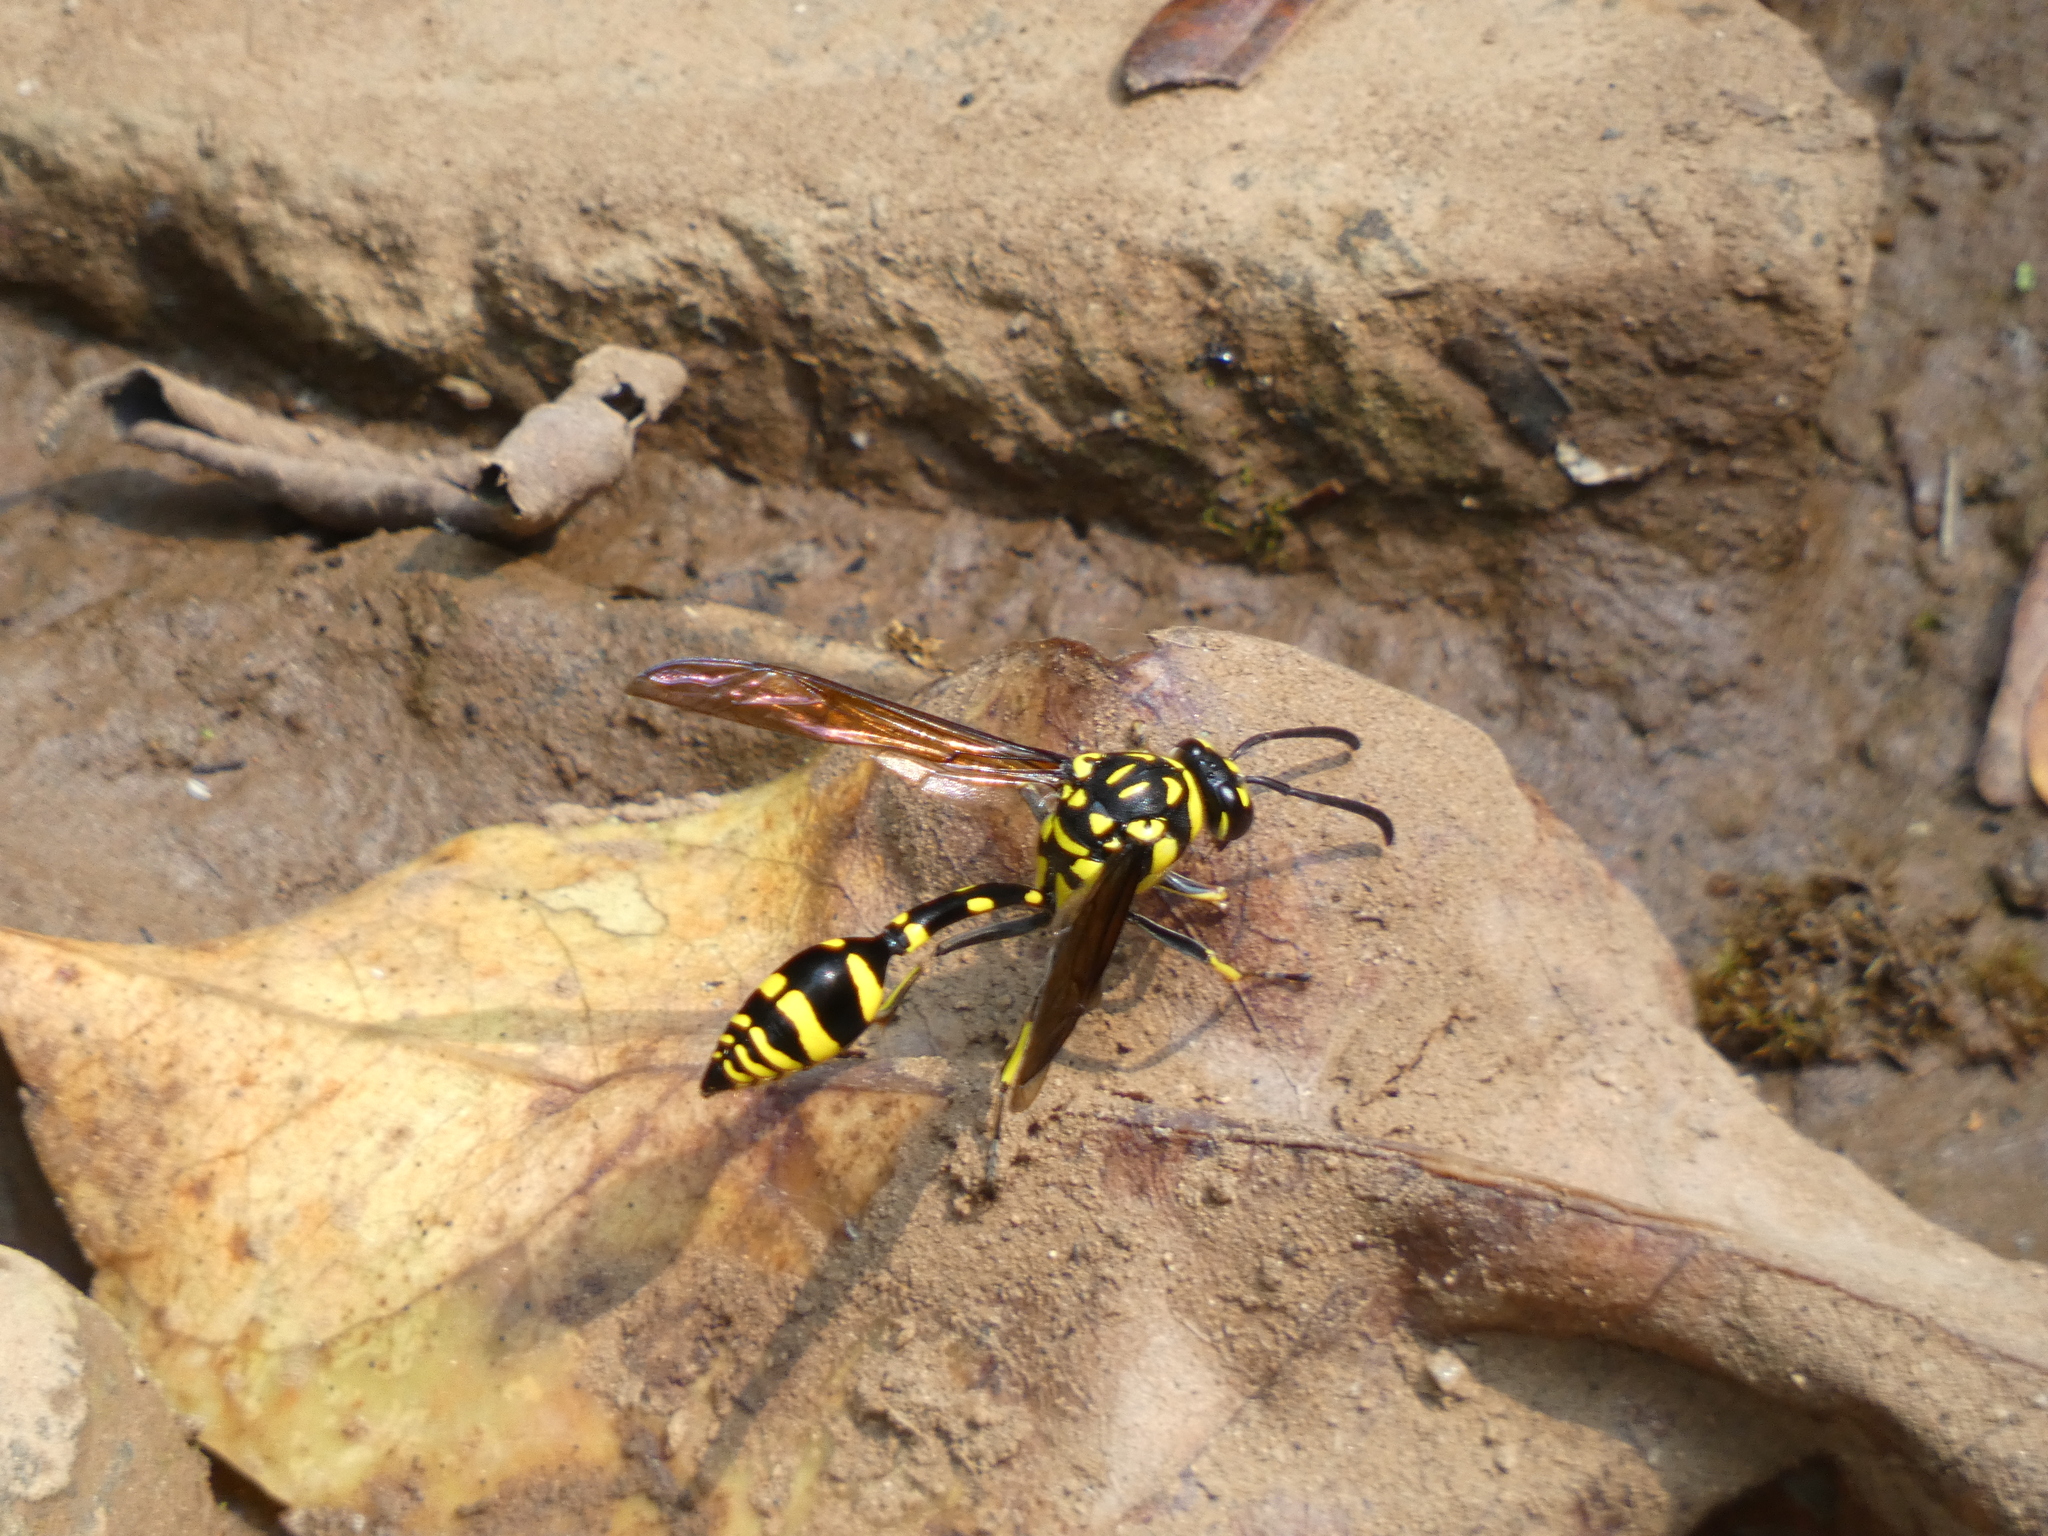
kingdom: Animalia
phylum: Arthropoda
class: Insecta
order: Hymenoptera
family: Eumenidae
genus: Phimenes
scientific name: Phimenes flavopictus
